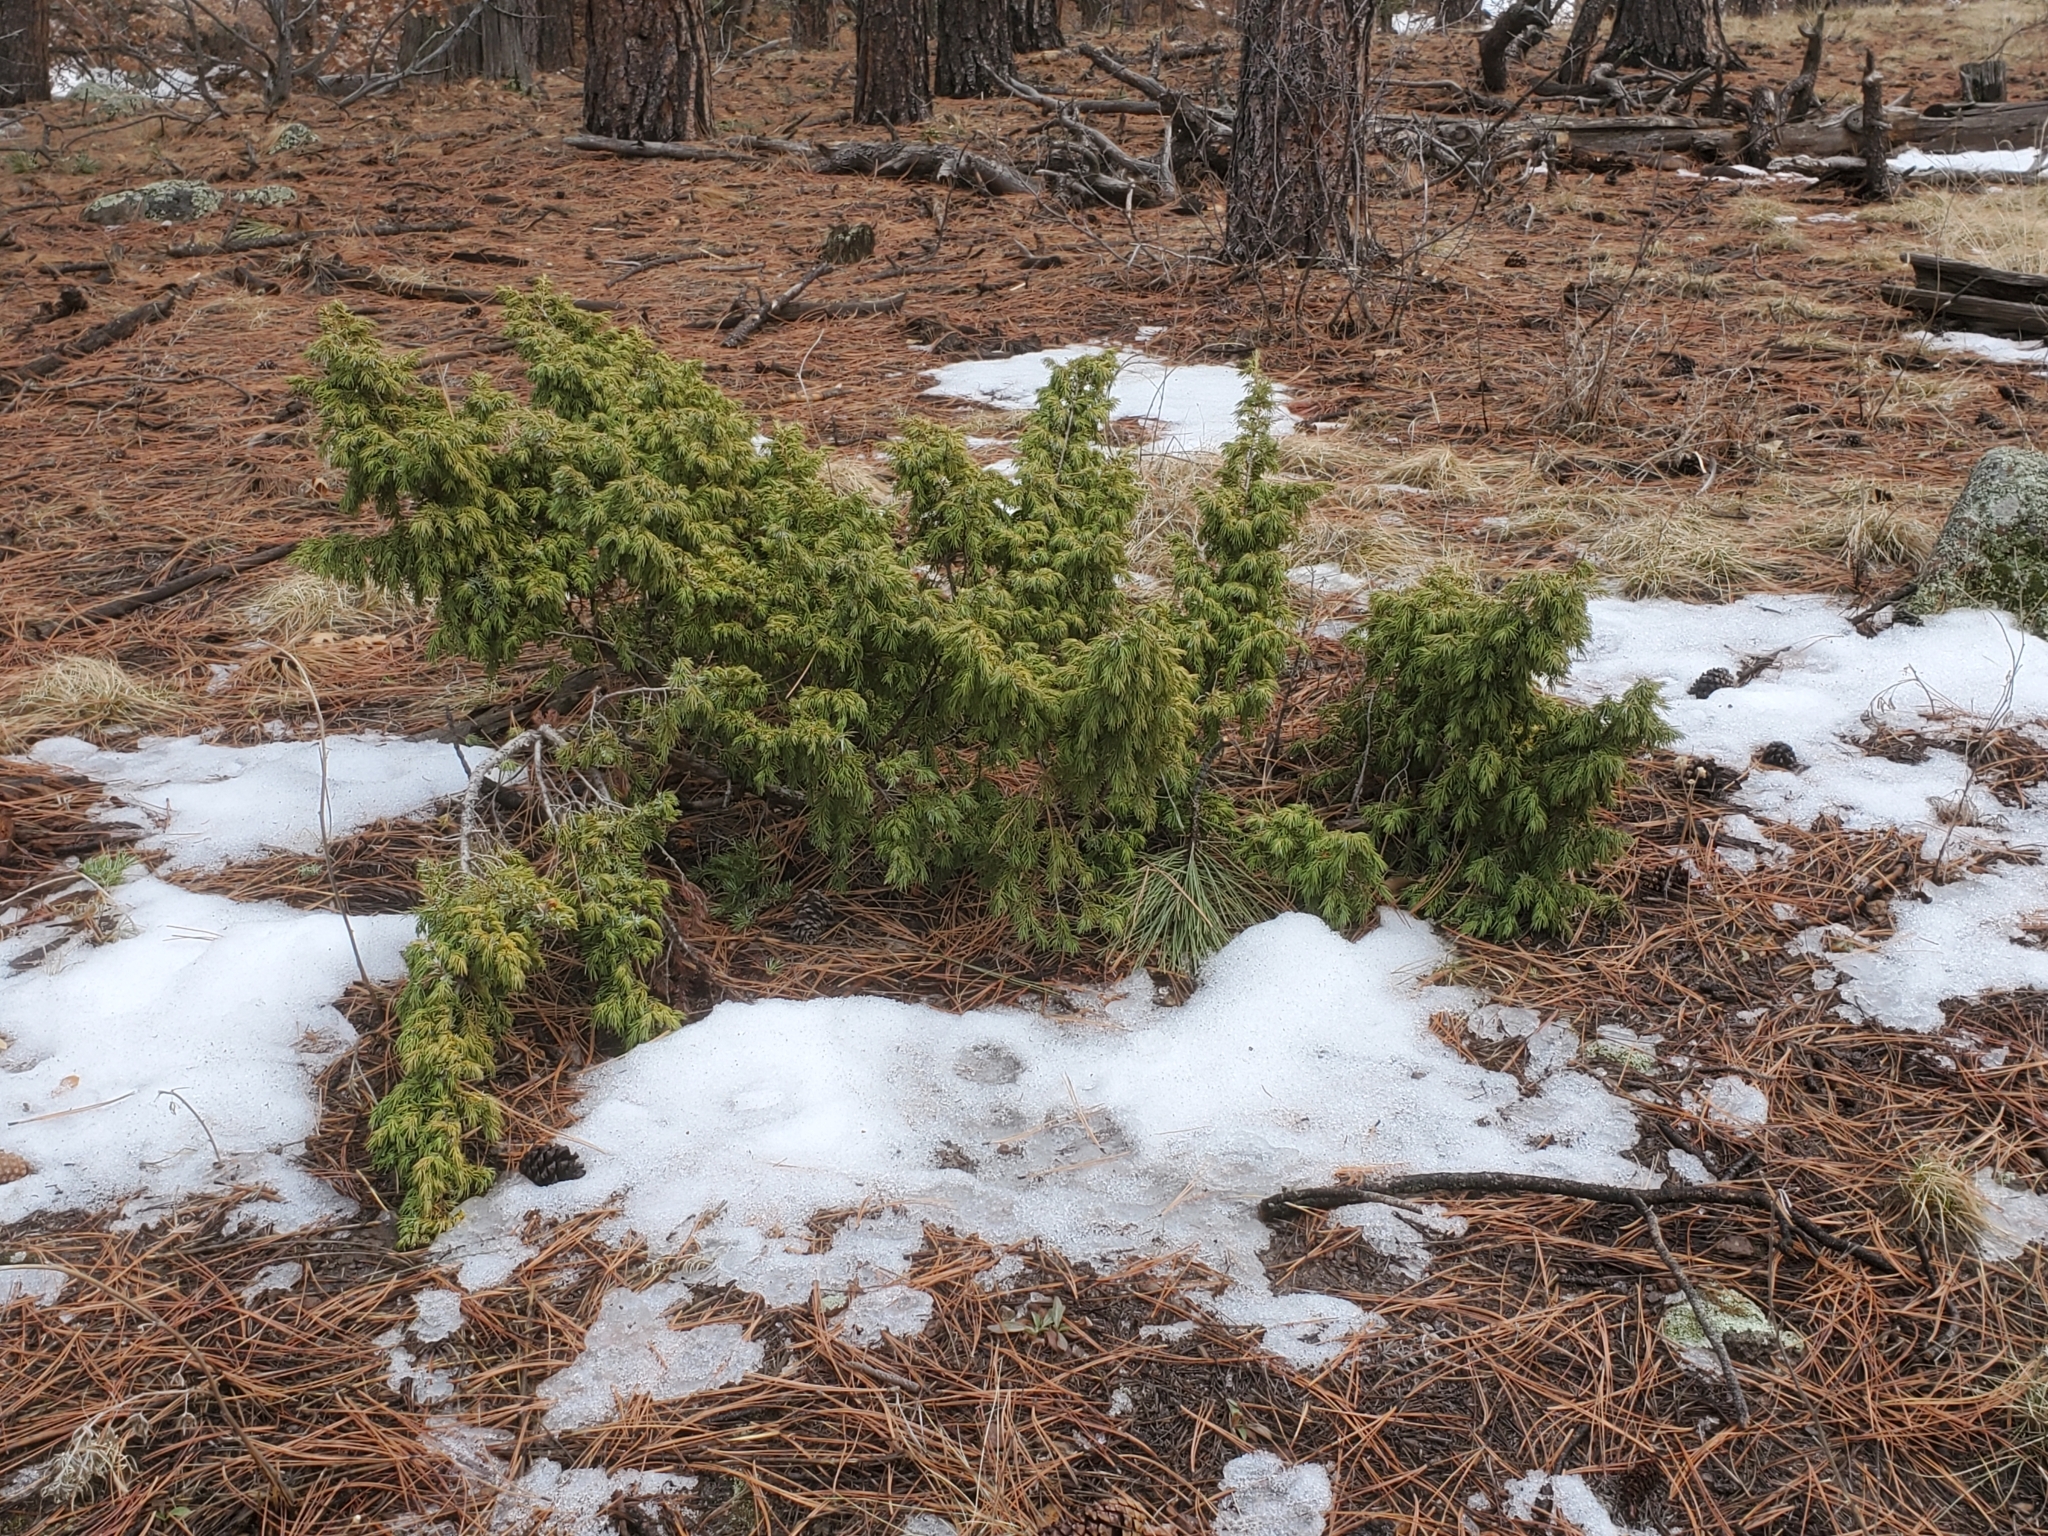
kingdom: Plantae
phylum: Tracheophyta
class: Pinopsida
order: Pinales
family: Cupressaceae
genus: Juniperus
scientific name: Juniperus communis
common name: Common juniper
